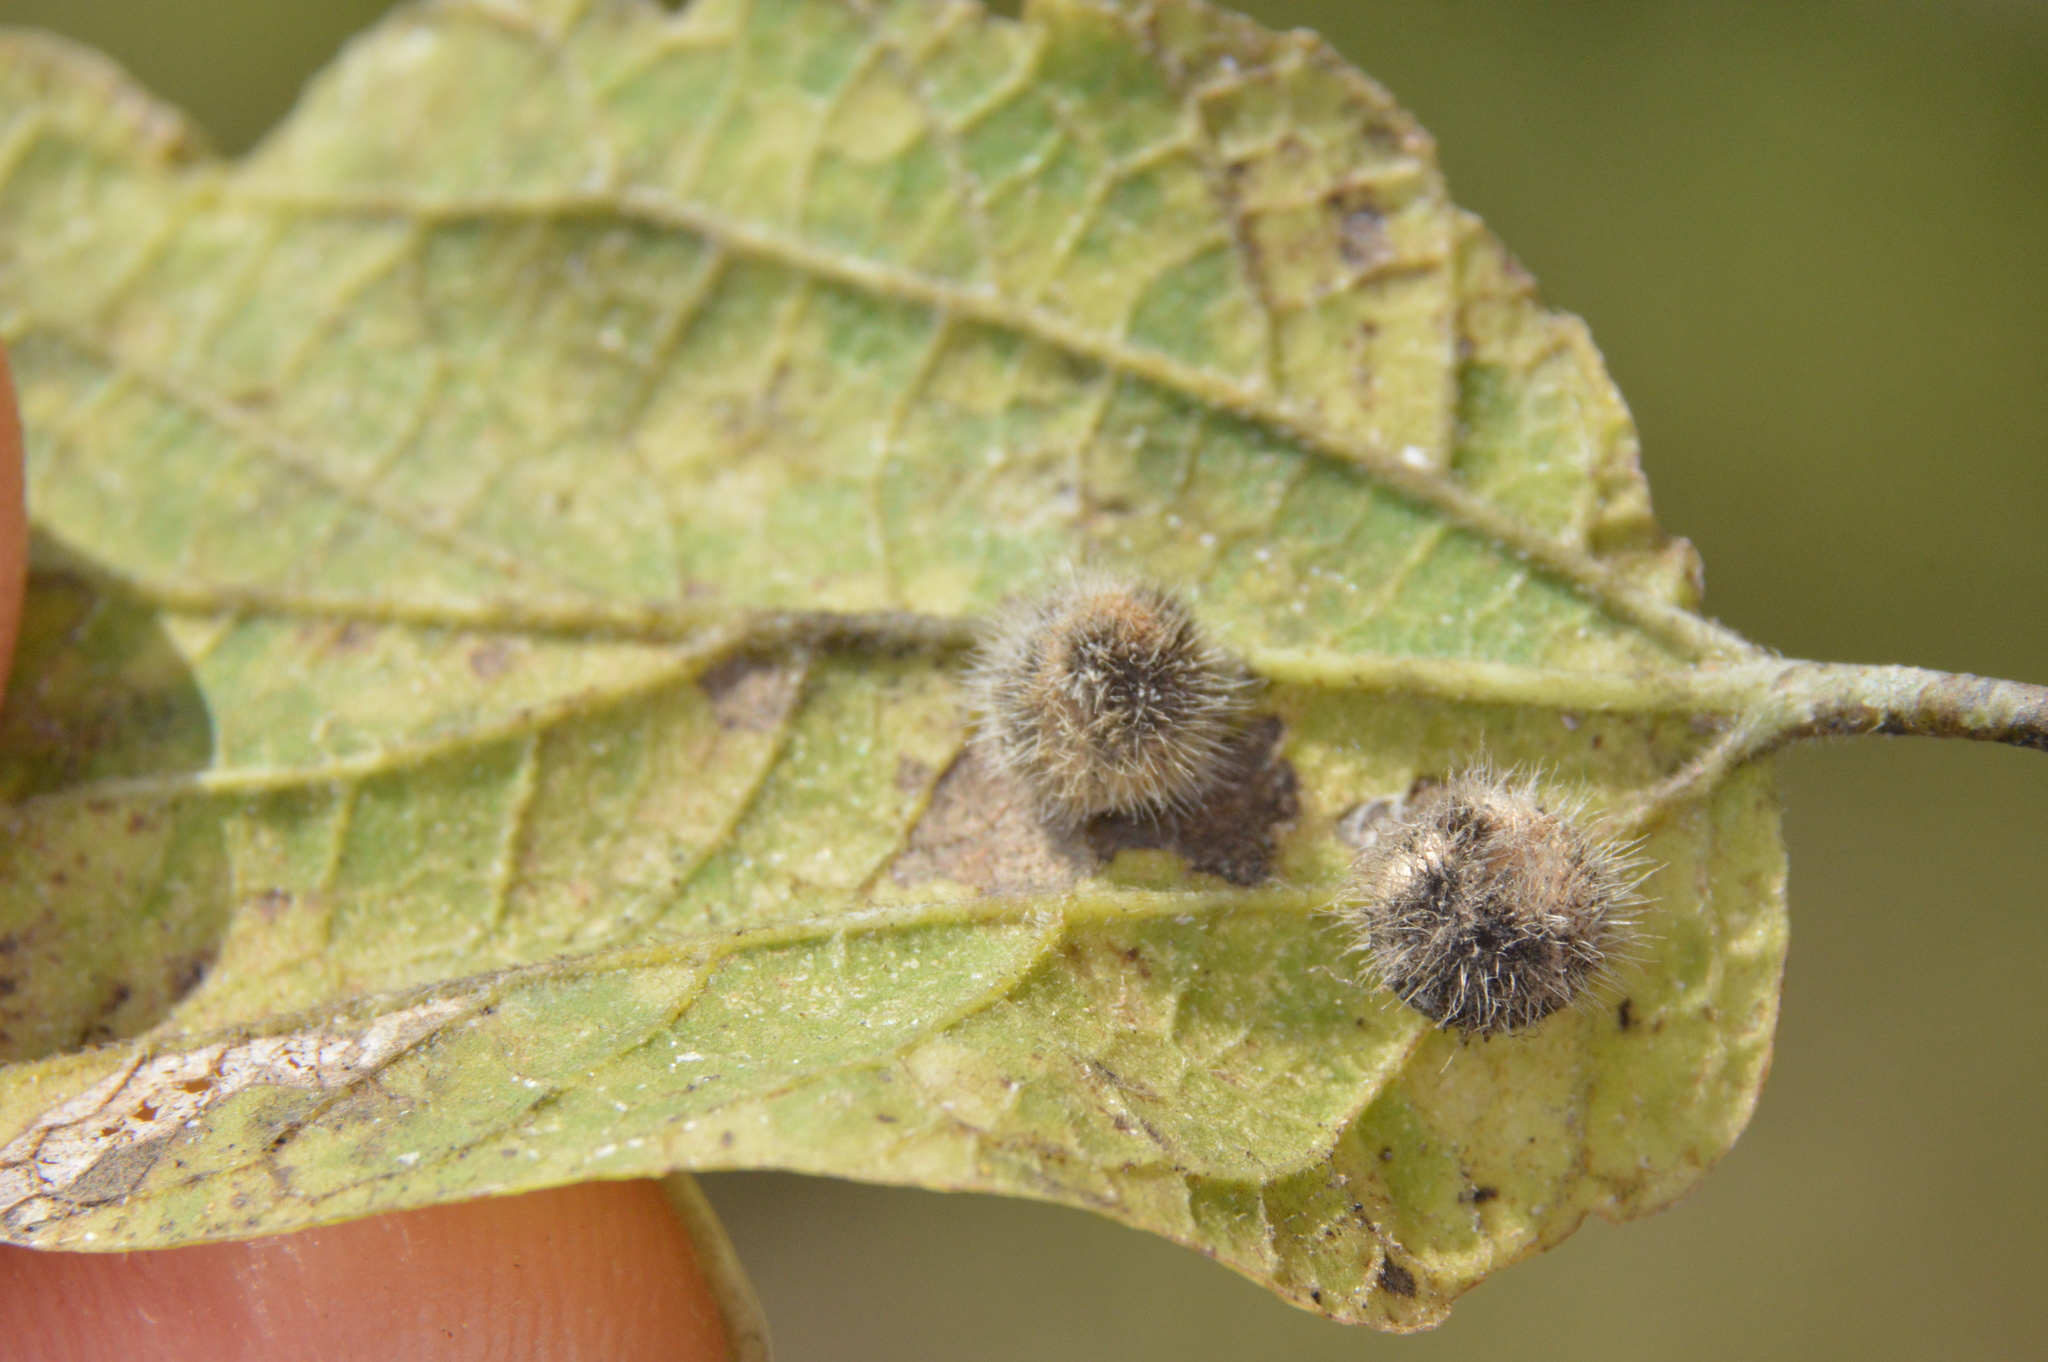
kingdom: Animalia
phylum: Arthropoda
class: Insecta
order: Diptera
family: Cecidomyiidae
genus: Celticecis
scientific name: Celticecis pubescens
